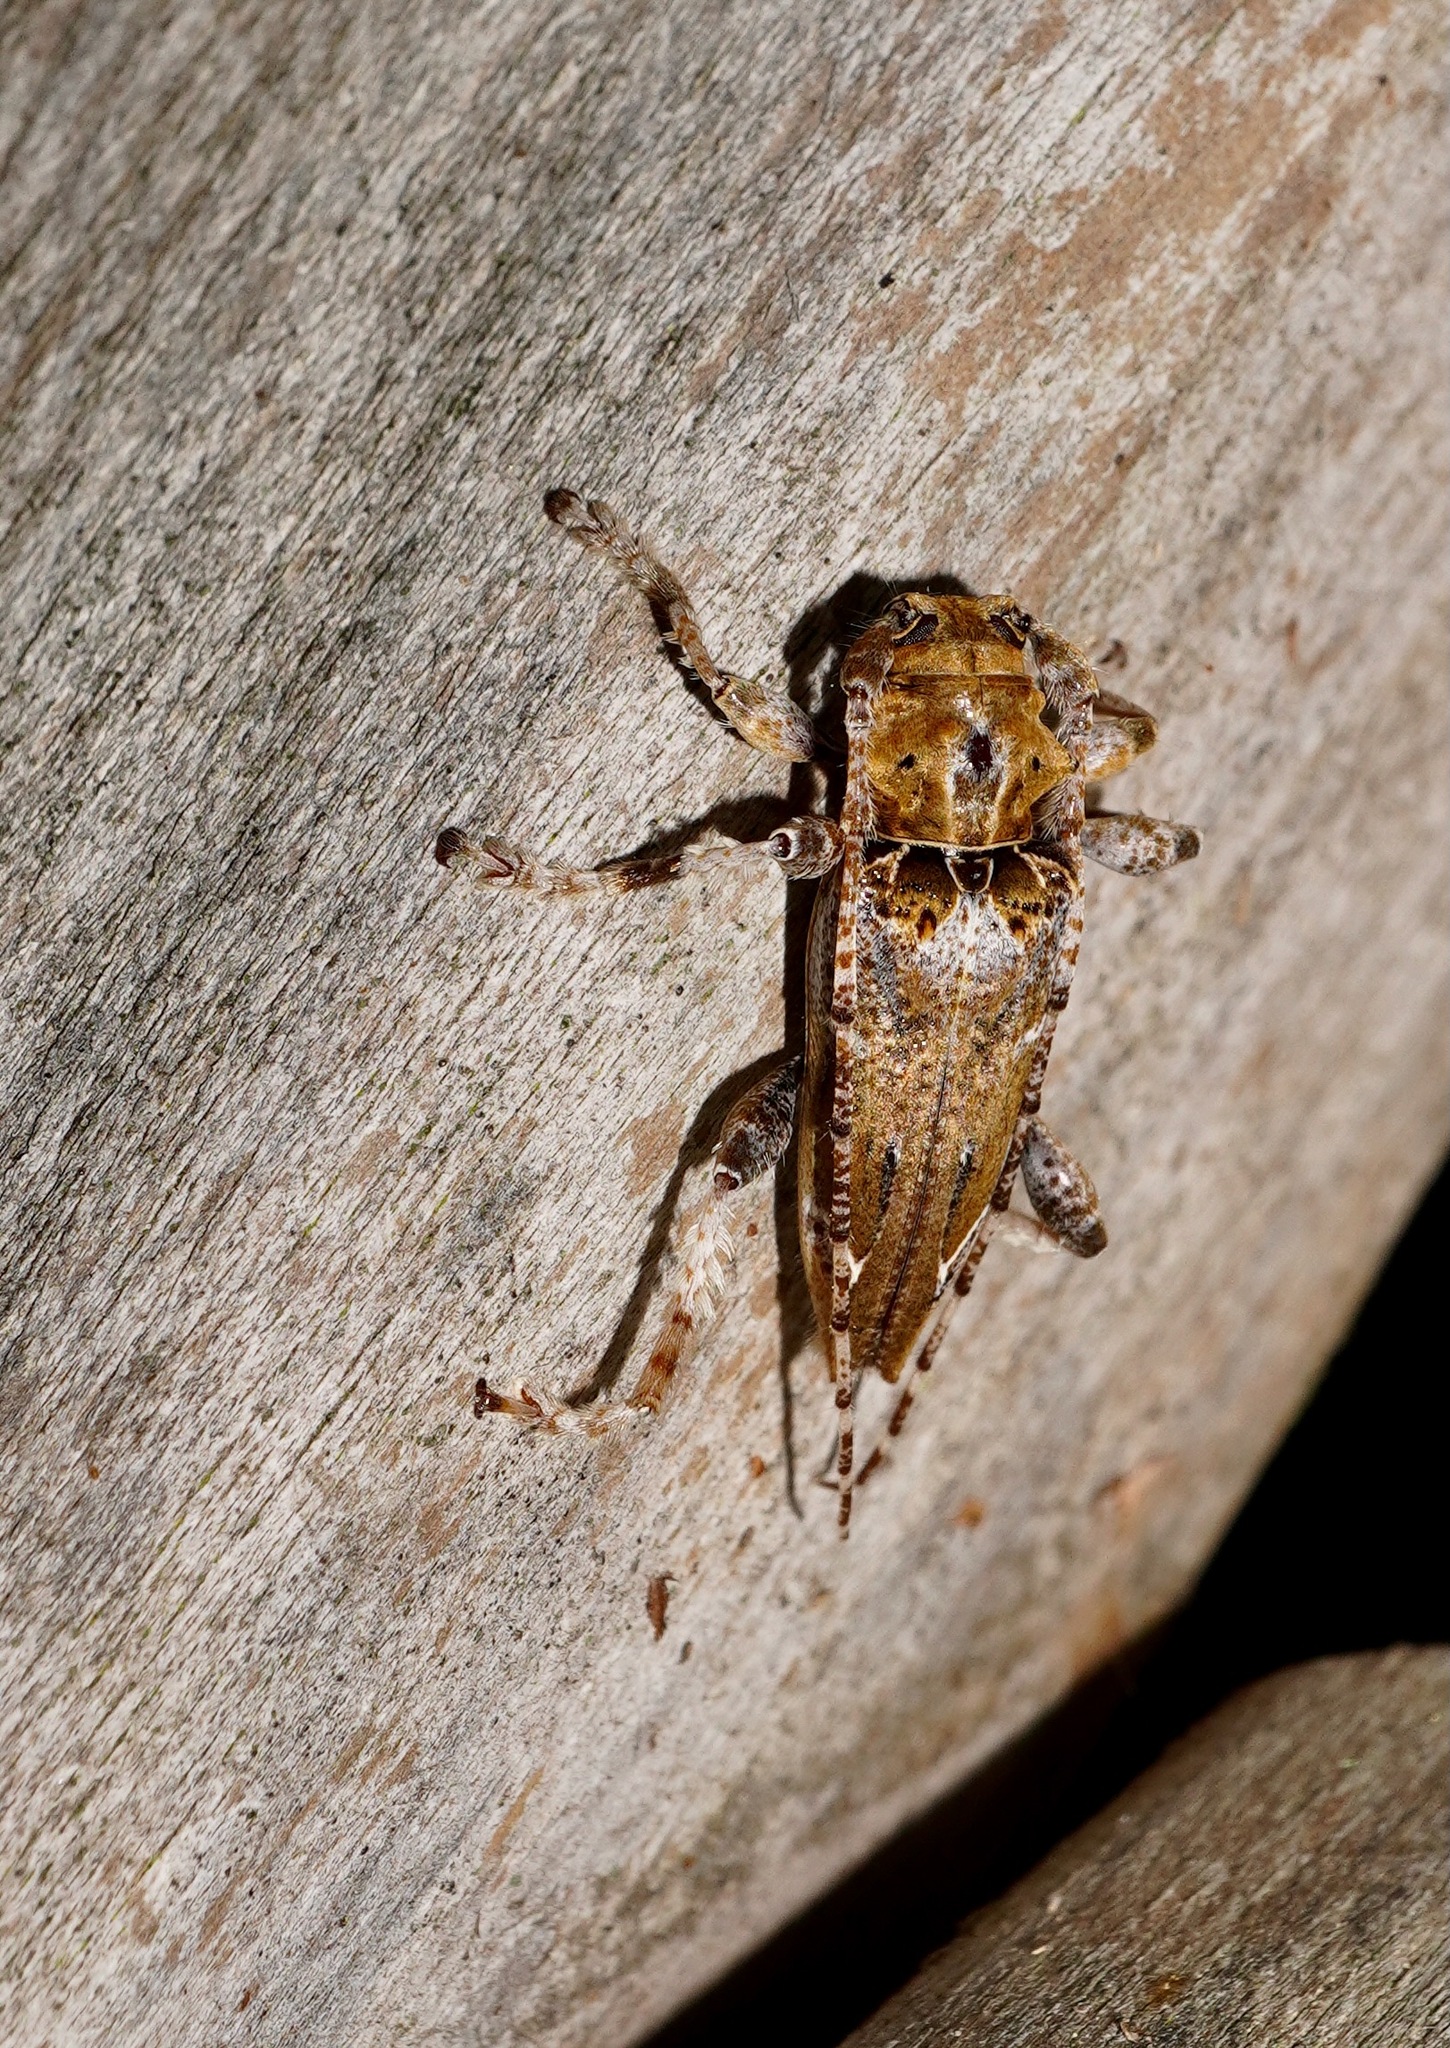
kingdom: Animalia
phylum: Arthropoda
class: Insecta
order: Coleoptera
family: Cerambycidae
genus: Tetrorea
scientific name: Tetrorea cilipes
